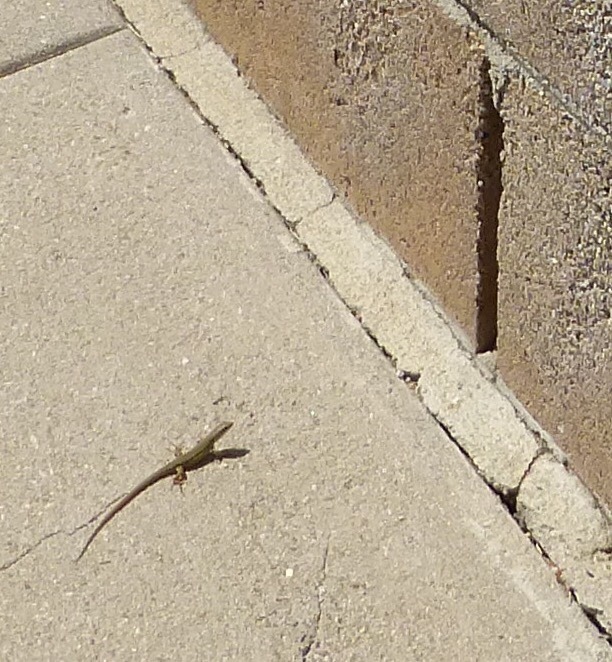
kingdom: Animalia
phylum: Chordata
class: Squamata
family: Lacertidae
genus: Podarcis
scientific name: Podarcis siculus
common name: Italian wall lizard
